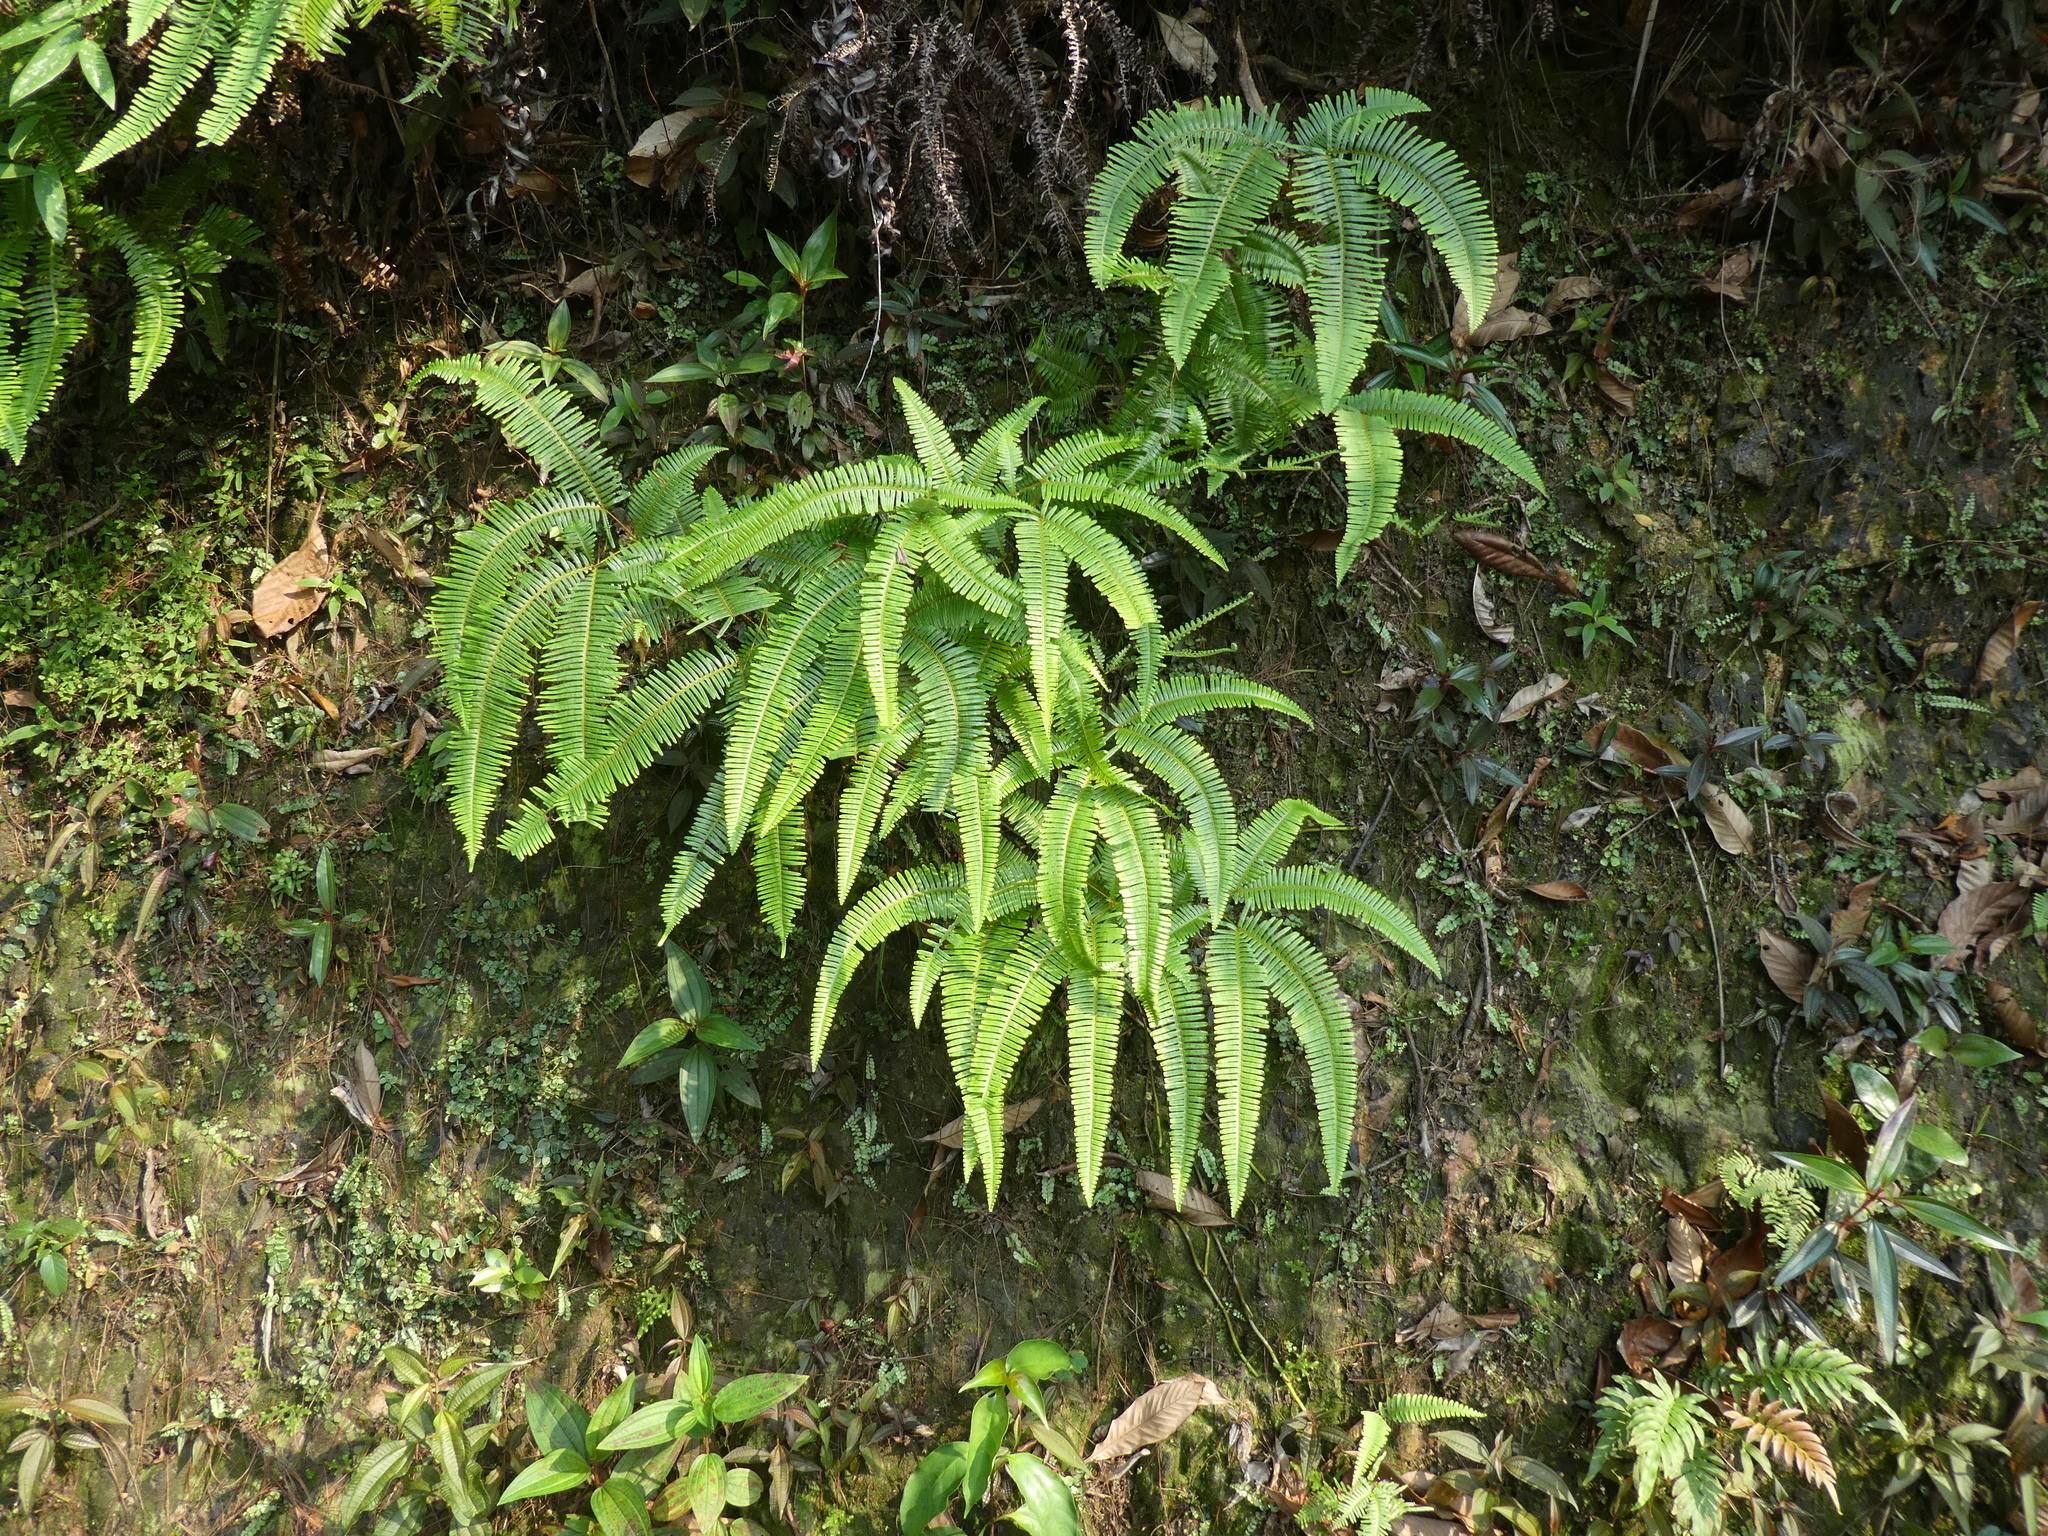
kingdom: Plantae
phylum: Tracheophyta
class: Polypodiopsida
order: Gleicheniales
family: Gleicheniaceae
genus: Dicranopteris
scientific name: Dicranopteris pedata
